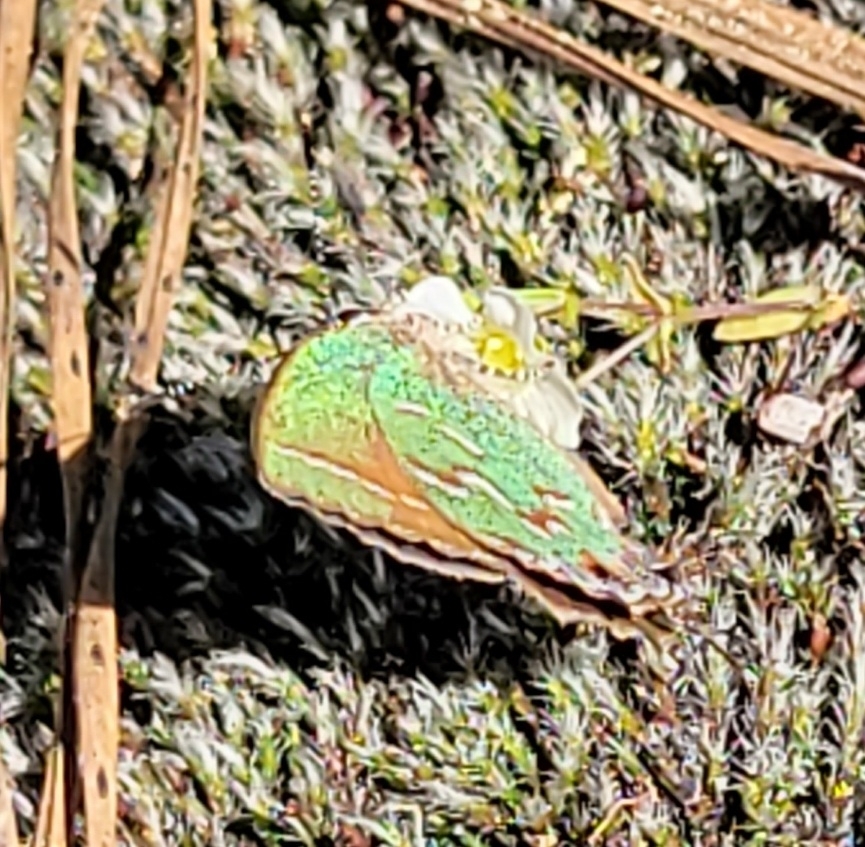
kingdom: Animalia
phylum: Arthropoda
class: Insecta
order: Lepidoptera
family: Lycaenidae
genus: Mitoura
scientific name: Mitoura gryneus
